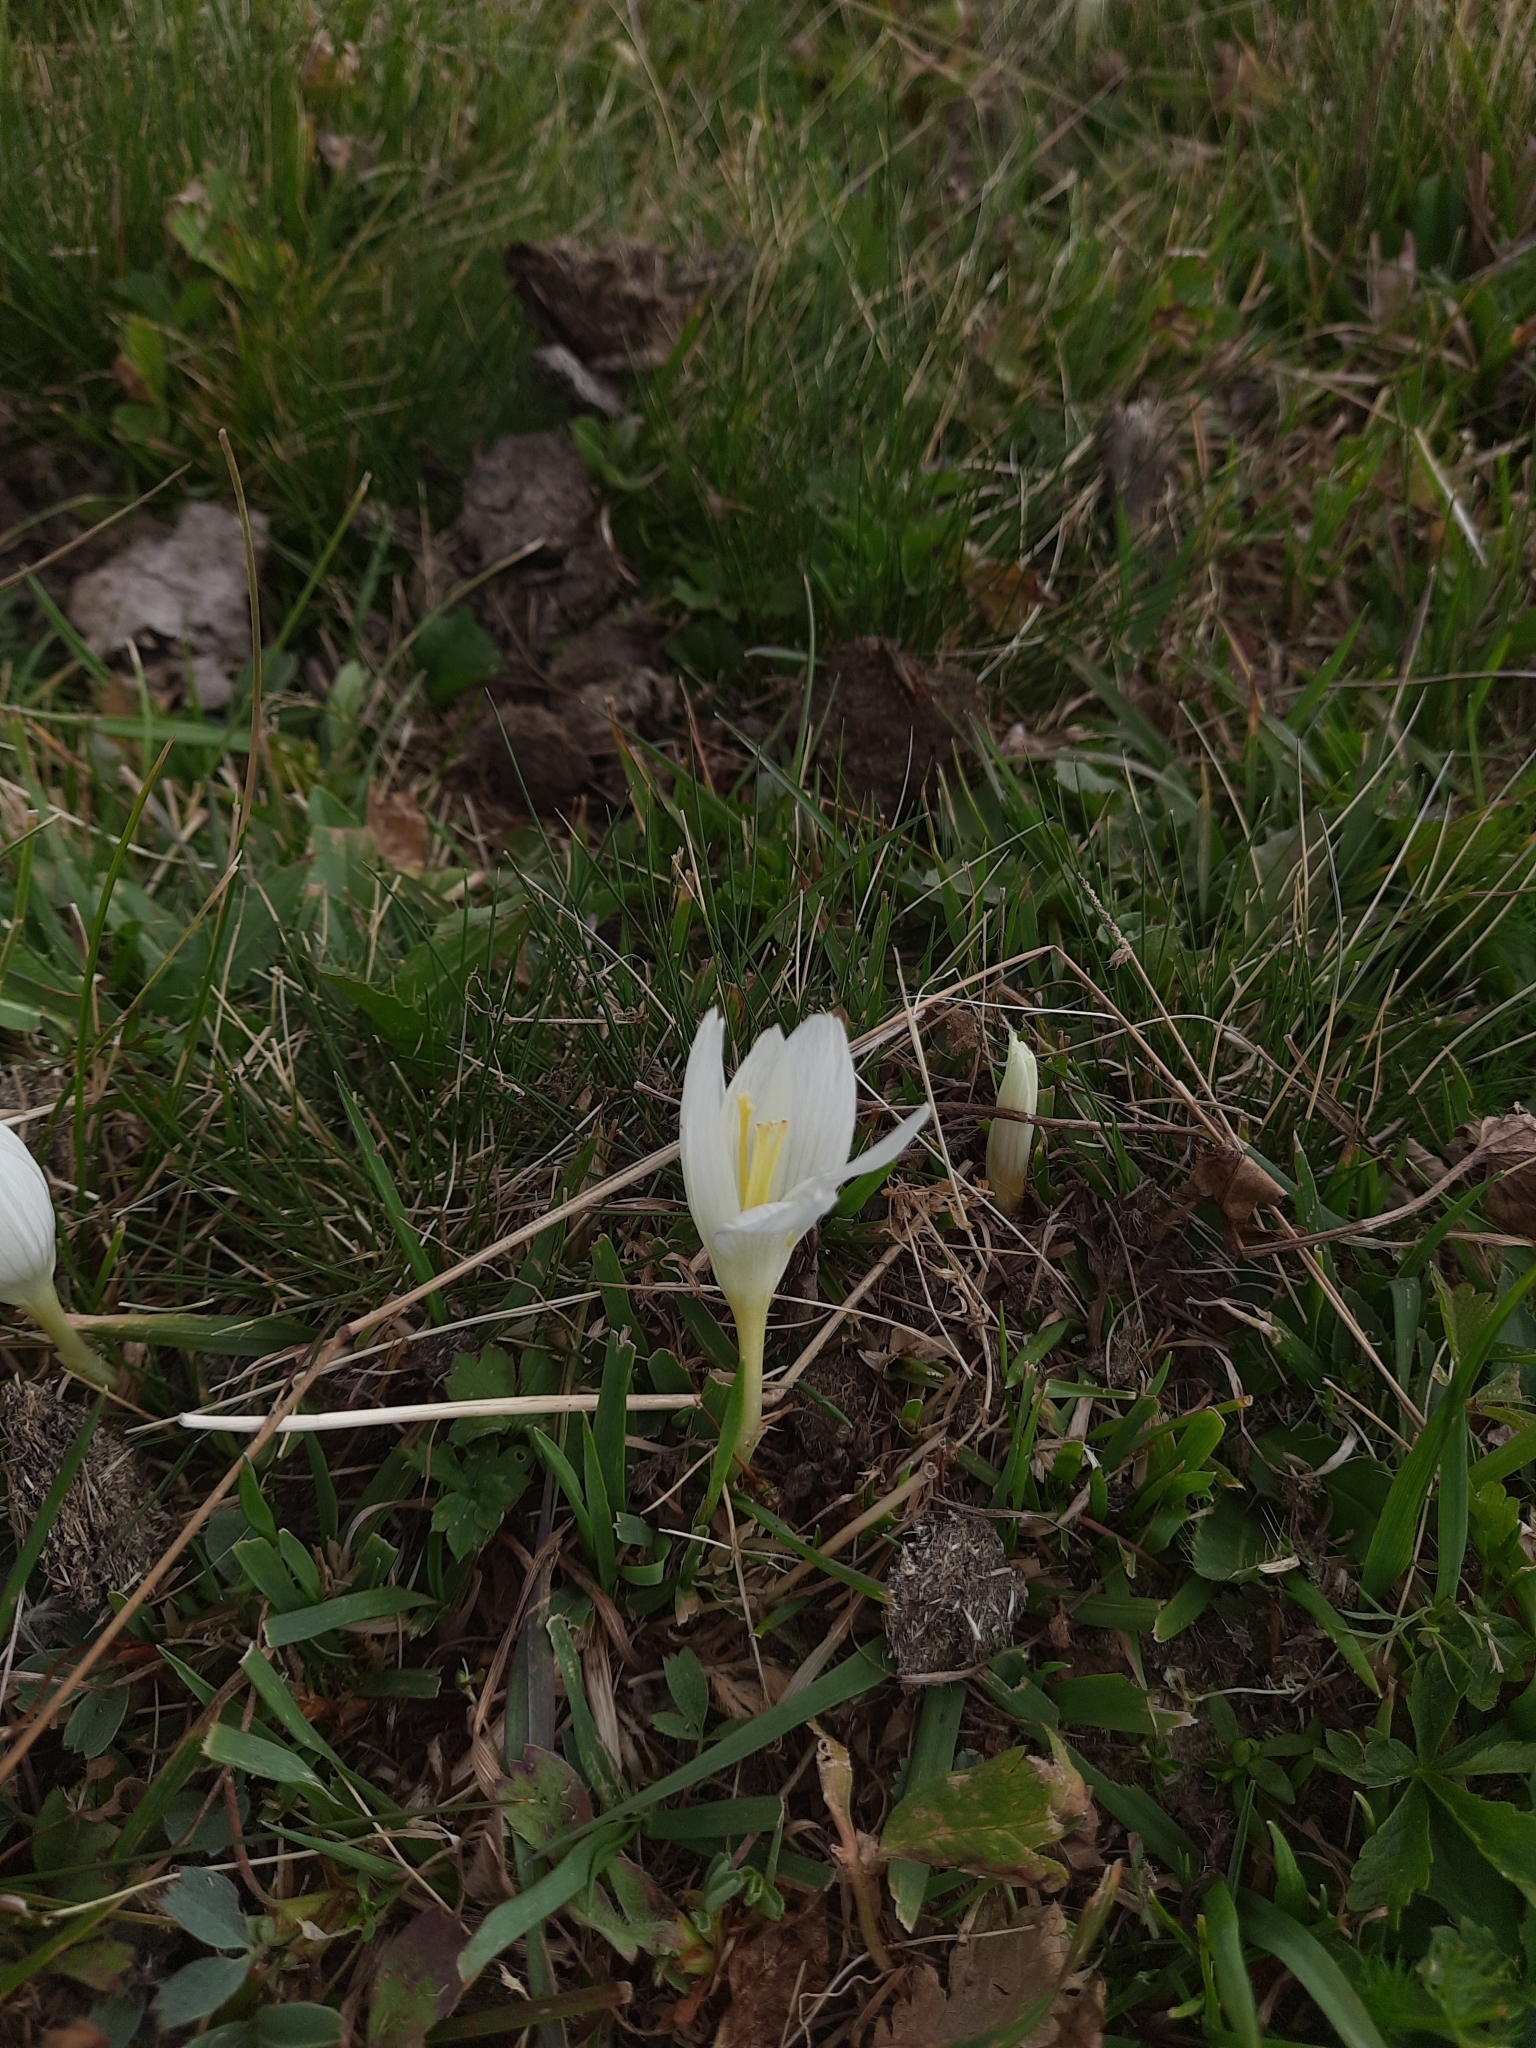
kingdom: Plantae
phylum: Tracheophyta
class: Liliopsida
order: Asparagales
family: Iridaceae
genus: Crocus
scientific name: Crocus vallicola
